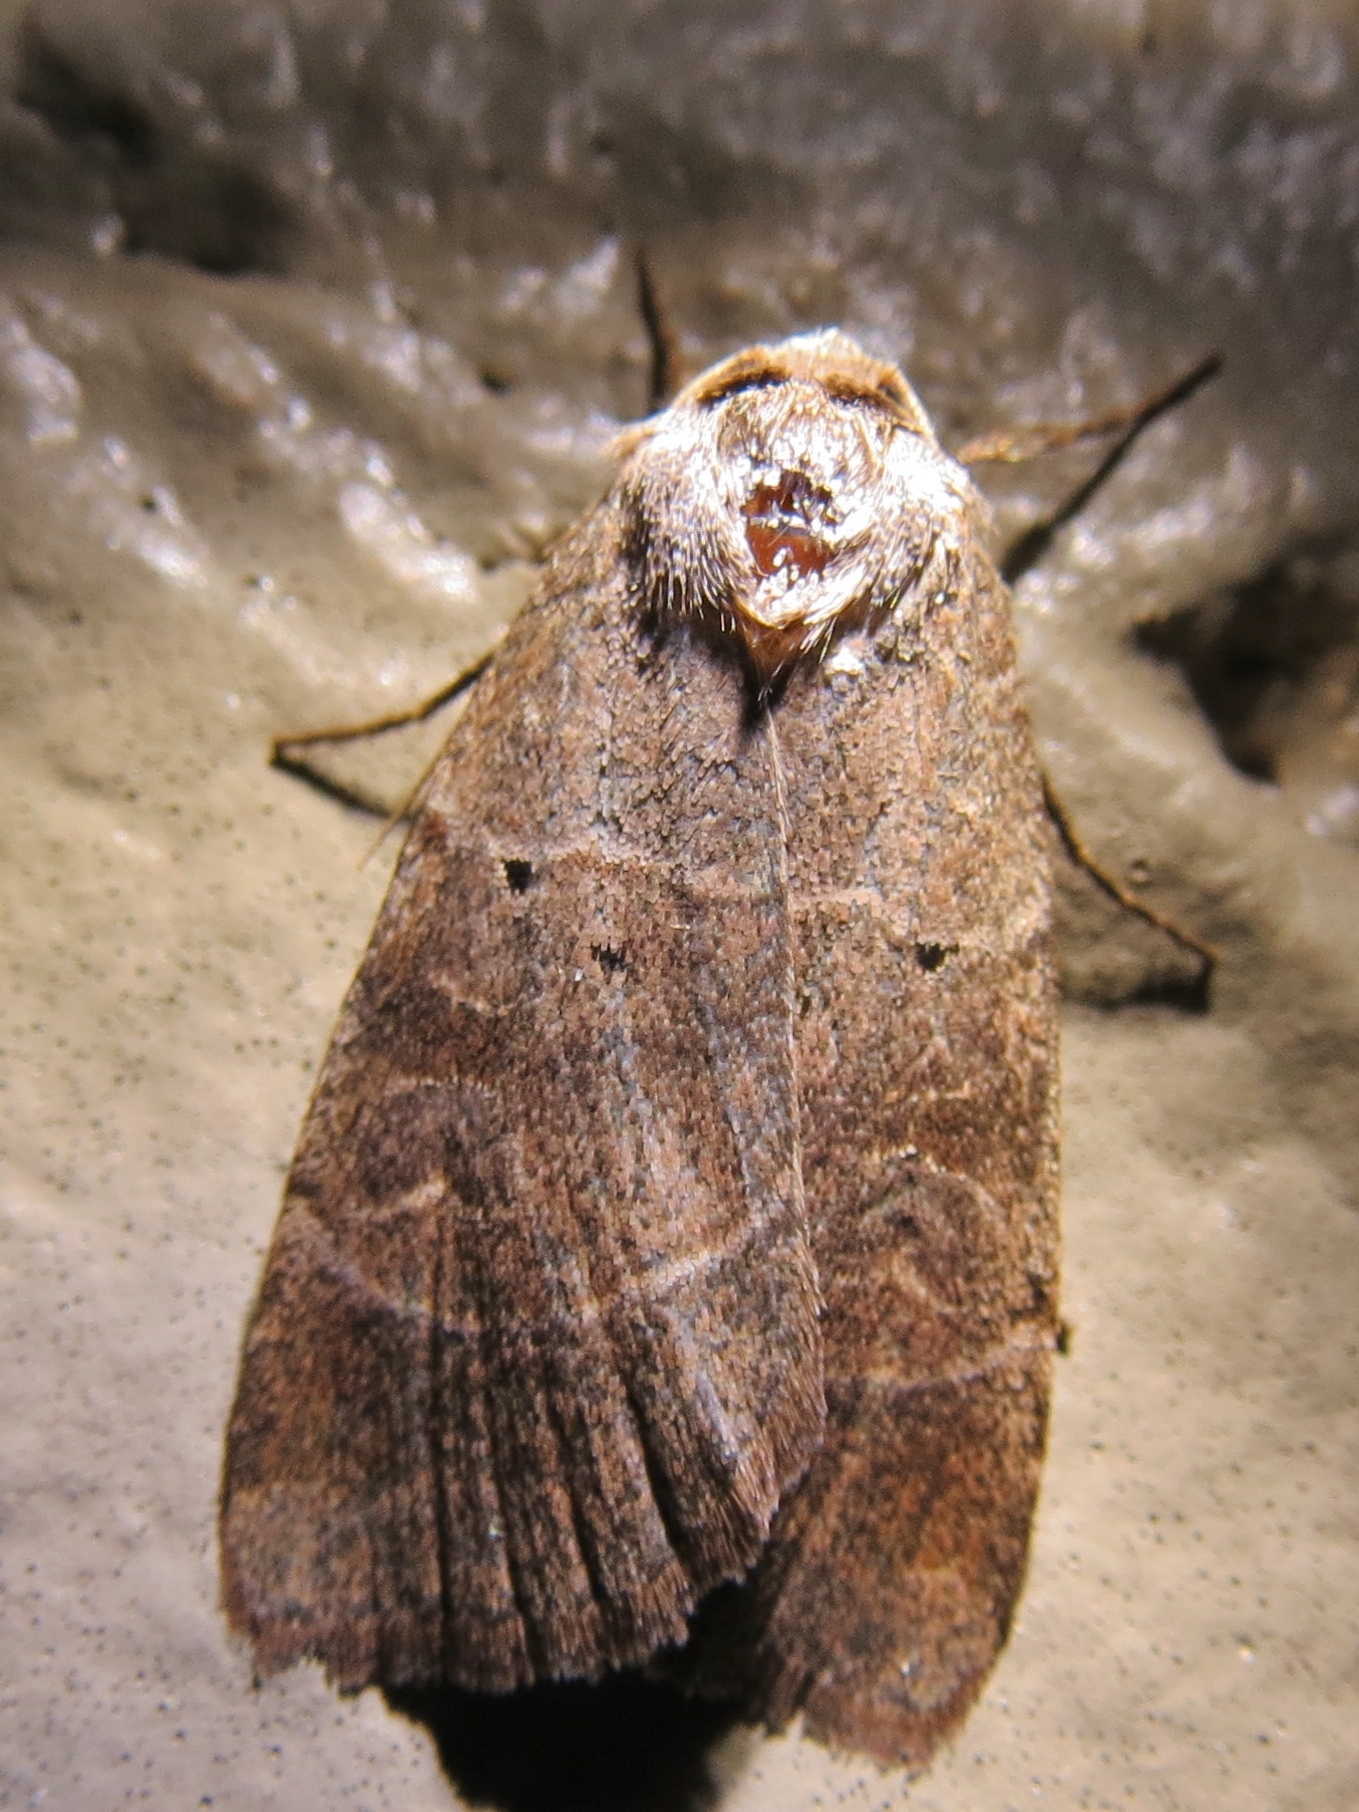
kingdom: Animalia
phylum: Arthropoda
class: Insecta
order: Lepidoptera
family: Noctuidae
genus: Agnorisma
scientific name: Agnorisma badinodis
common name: Pale-banded dart
